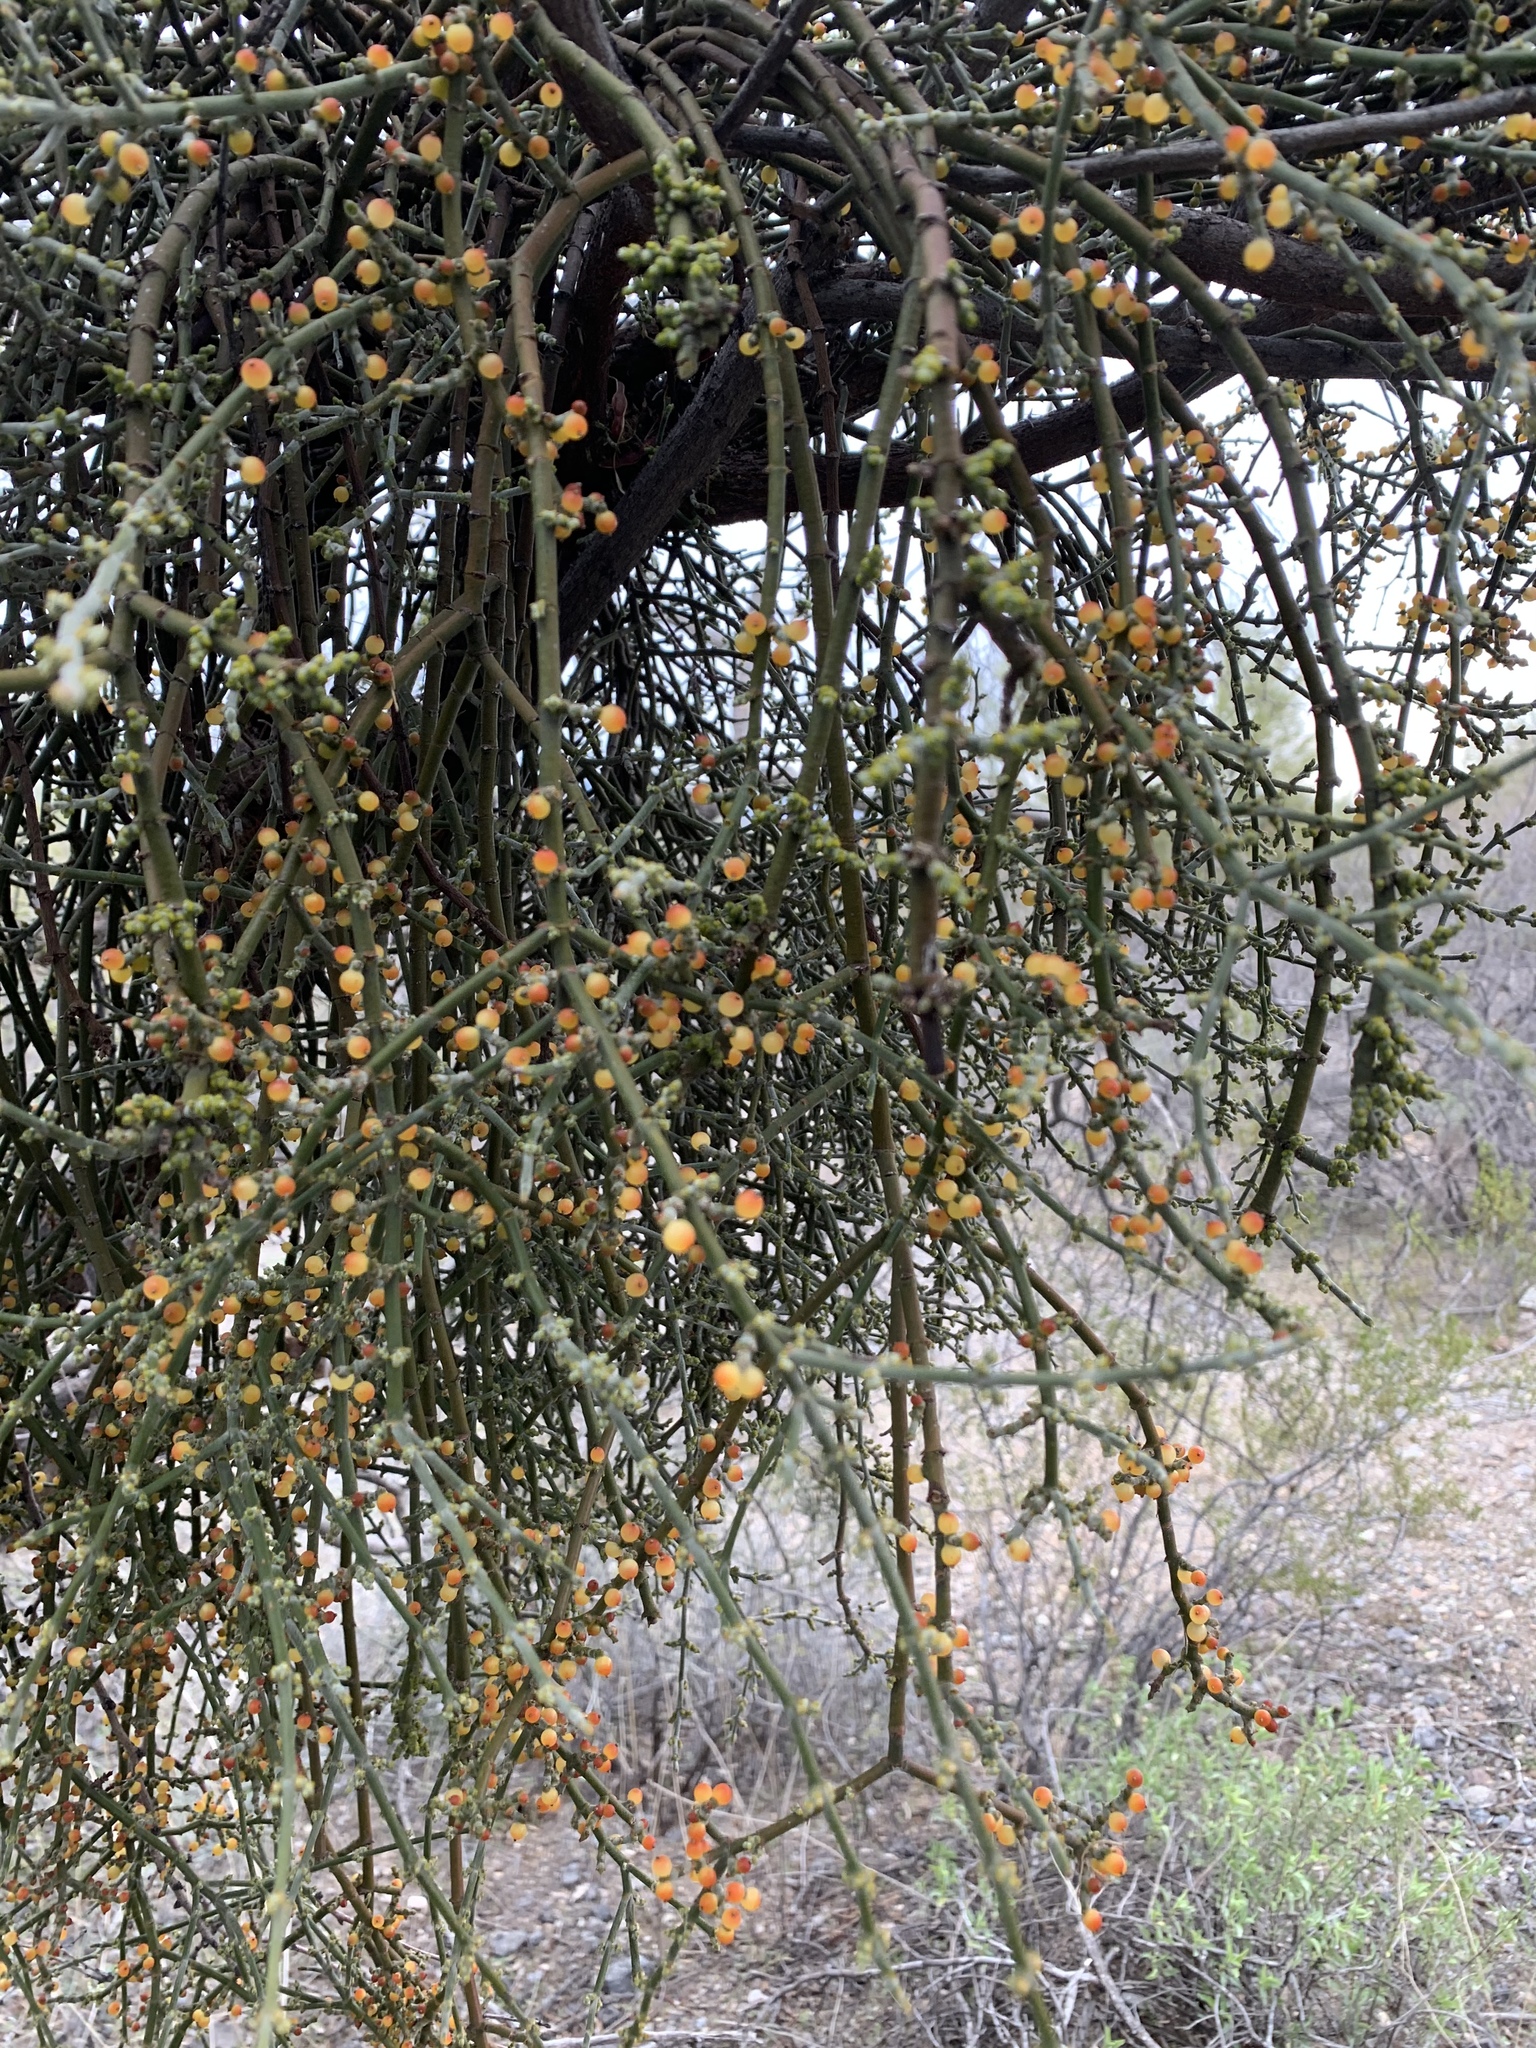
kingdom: Plantae
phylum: Tracheophyta
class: Magnoliopsida
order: Santalales
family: Viscaceae
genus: Phoradendron
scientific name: Phoradendron californicum
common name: Acacia mistletoe
